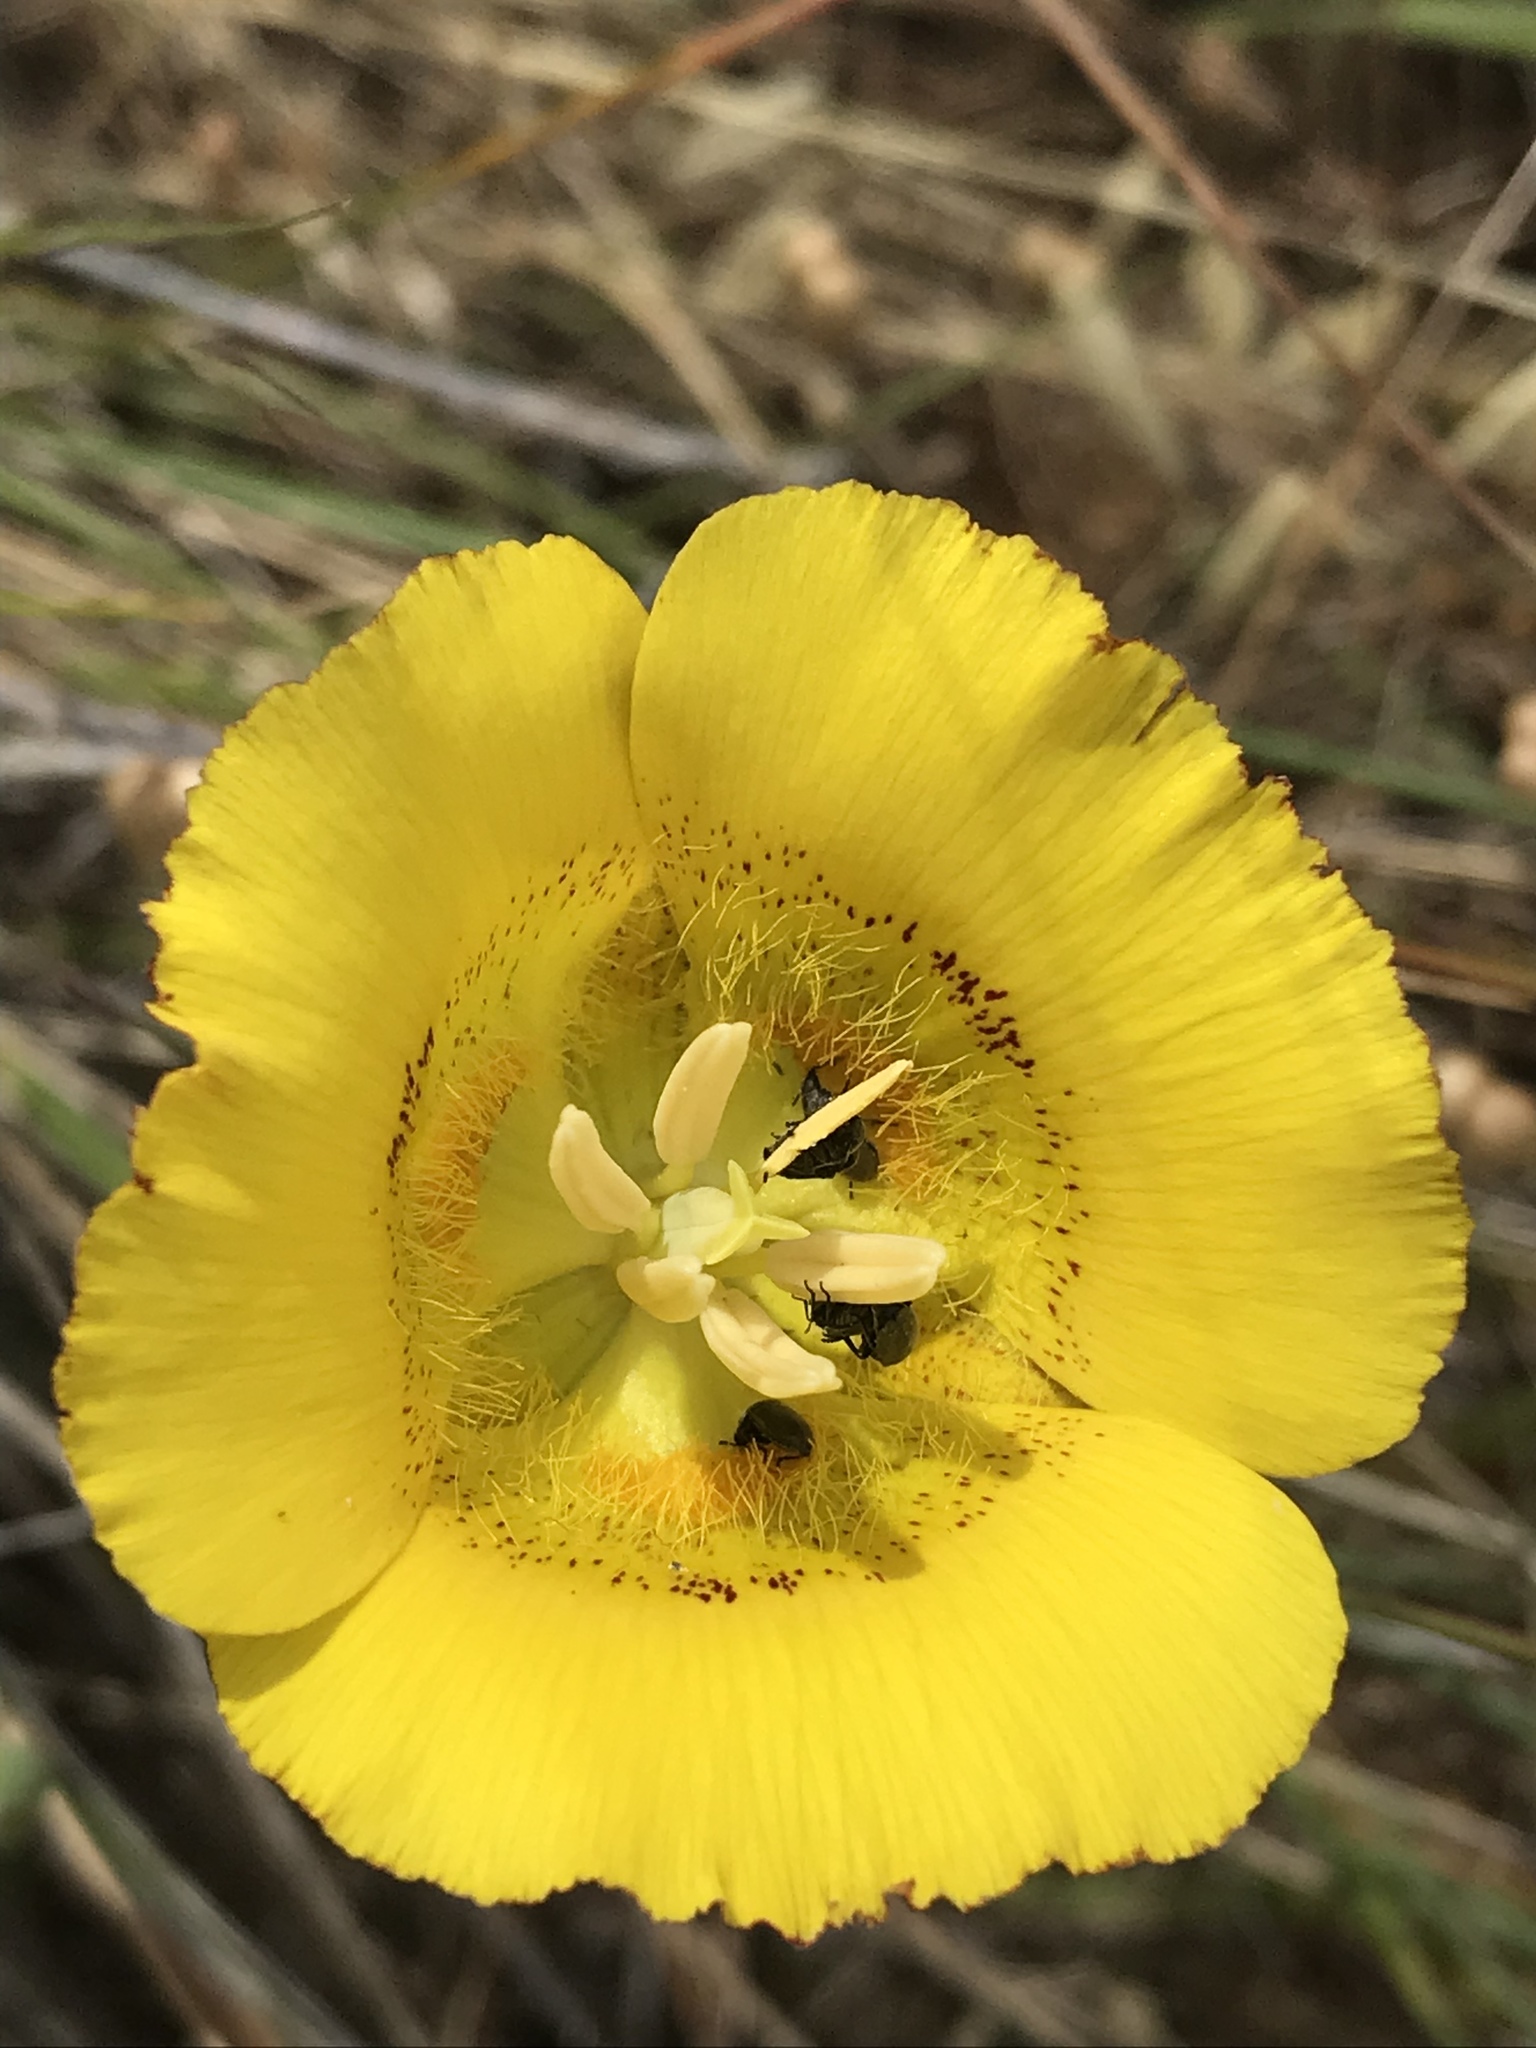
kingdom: Plantae
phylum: Tracheophyta
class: Liliopsida
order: Liliales
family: Liliaceae
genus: Calochortus
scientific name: Calochortus luteus
